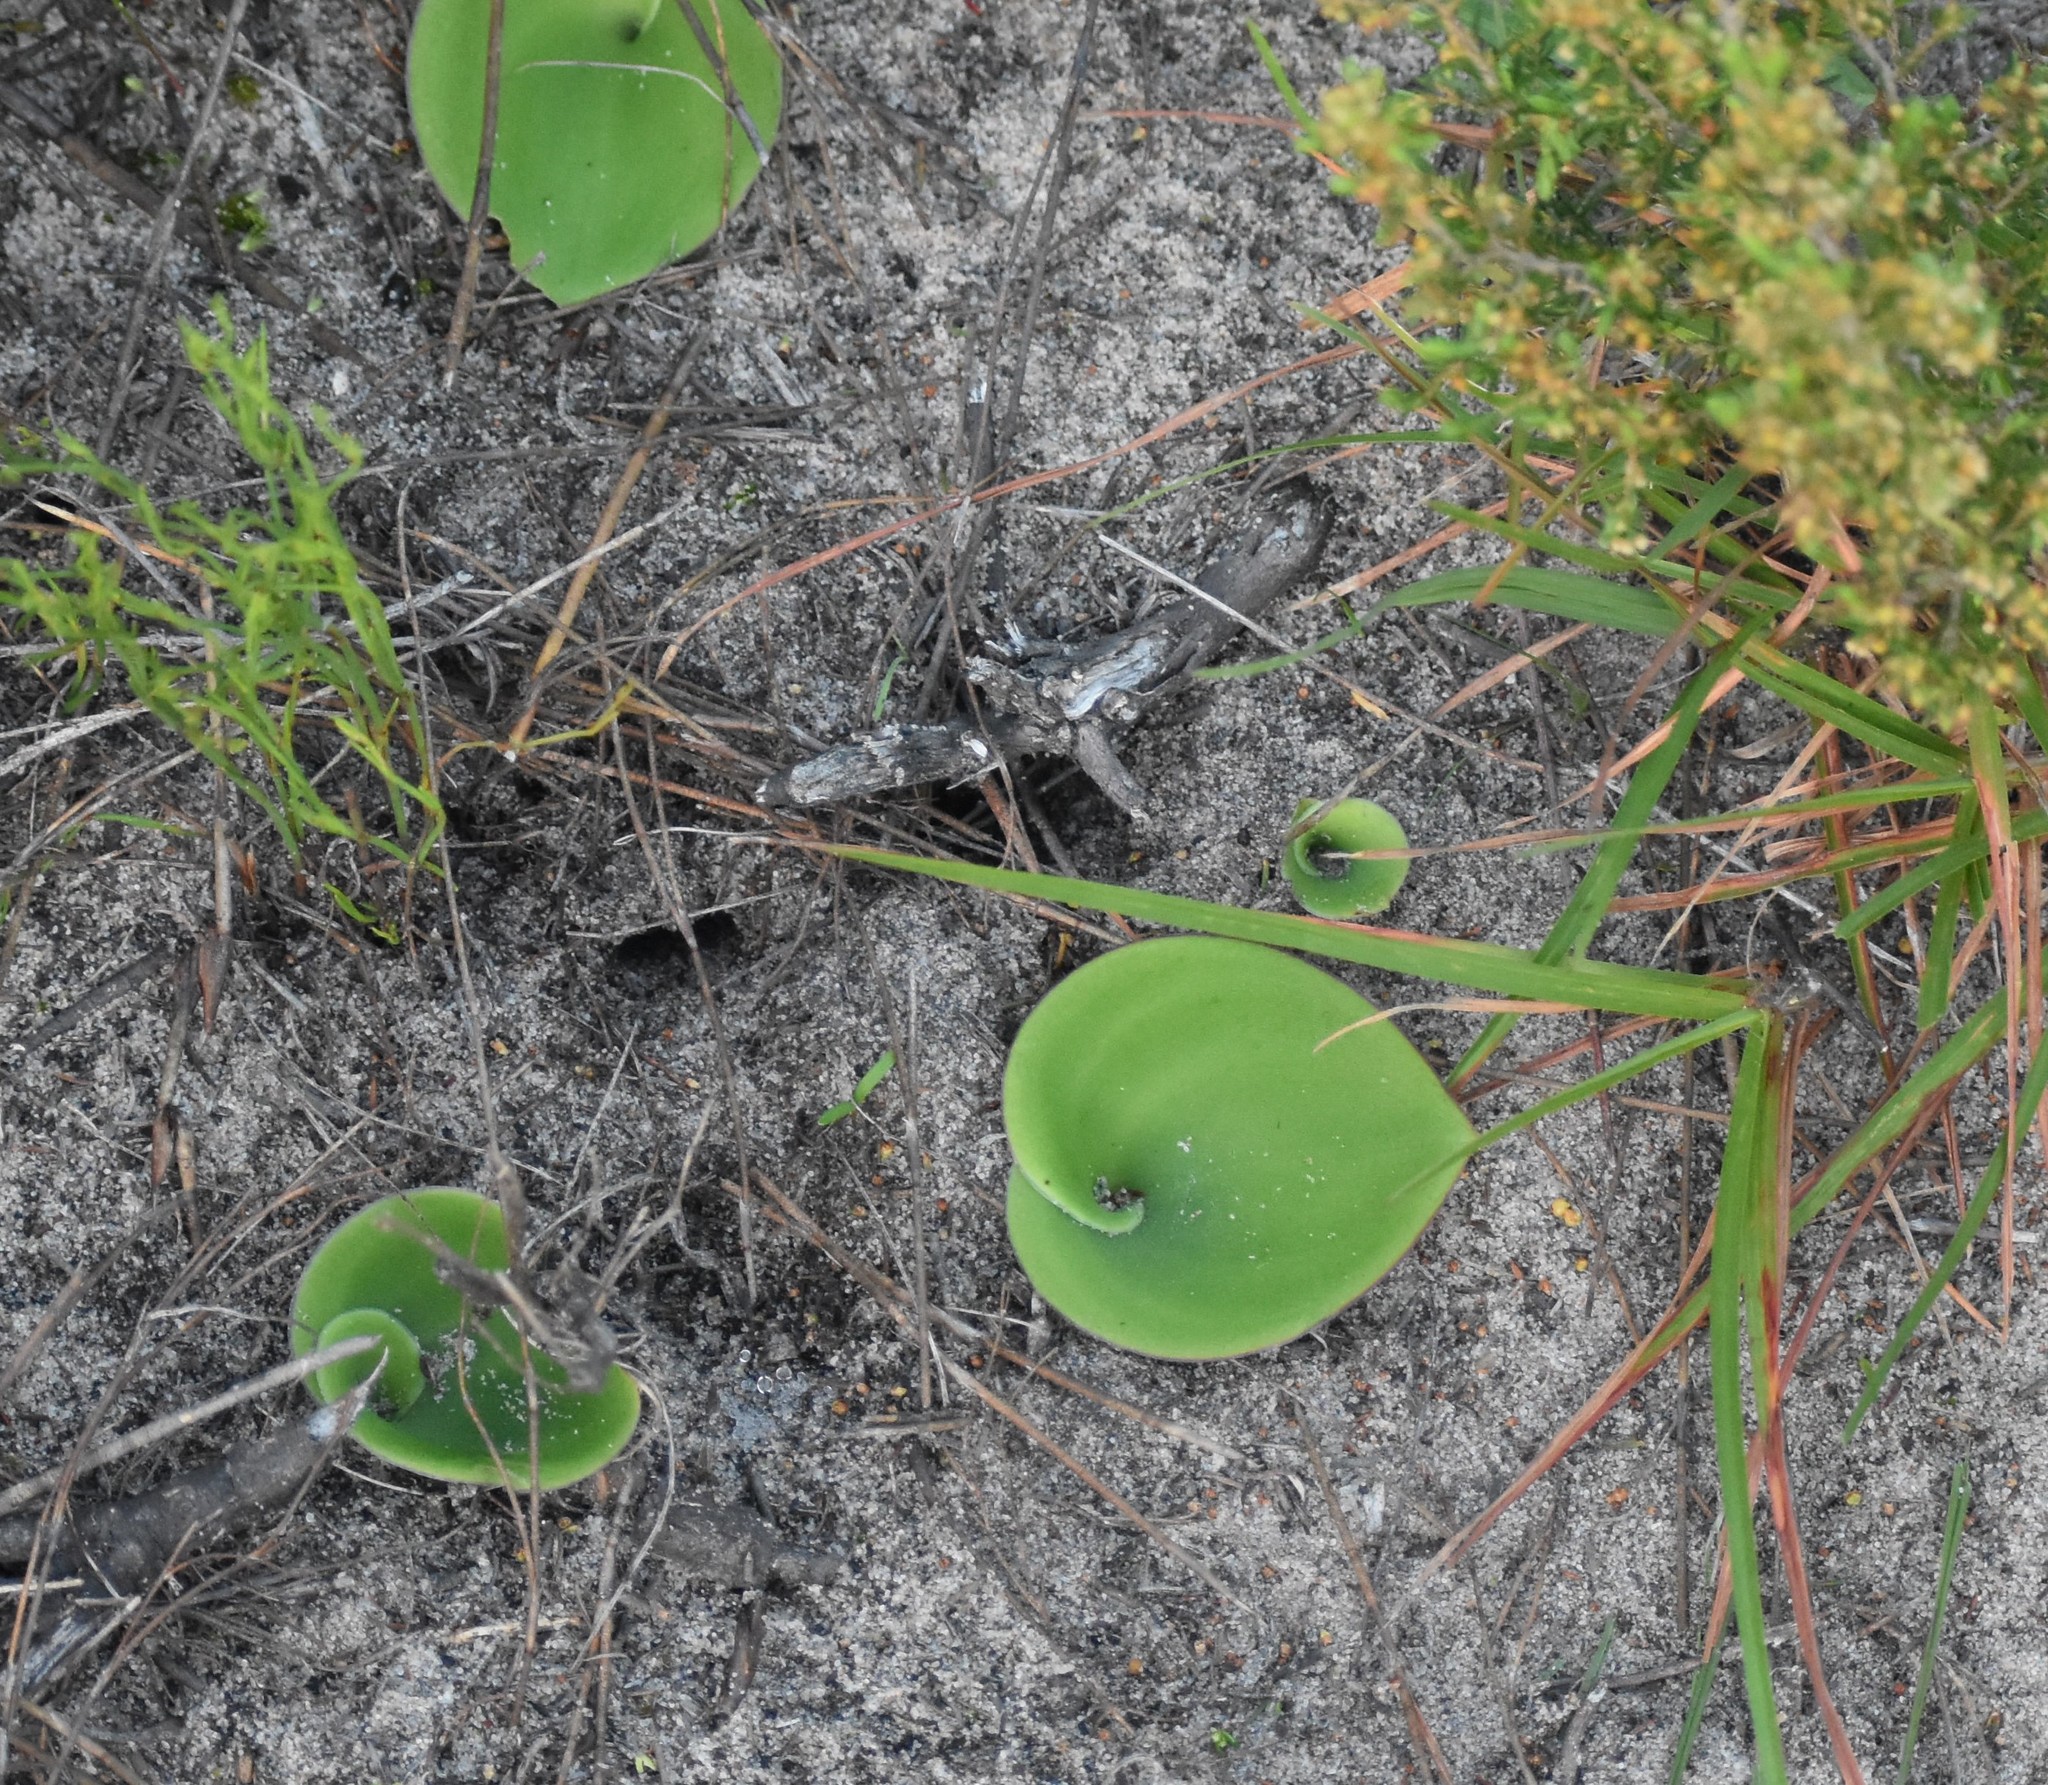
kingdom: Plantae
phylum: Tracheophyta
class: Liliopsida
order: Asparagales
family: Orchidaceae
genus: Satyrium
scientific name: Satyrium acuminatum
